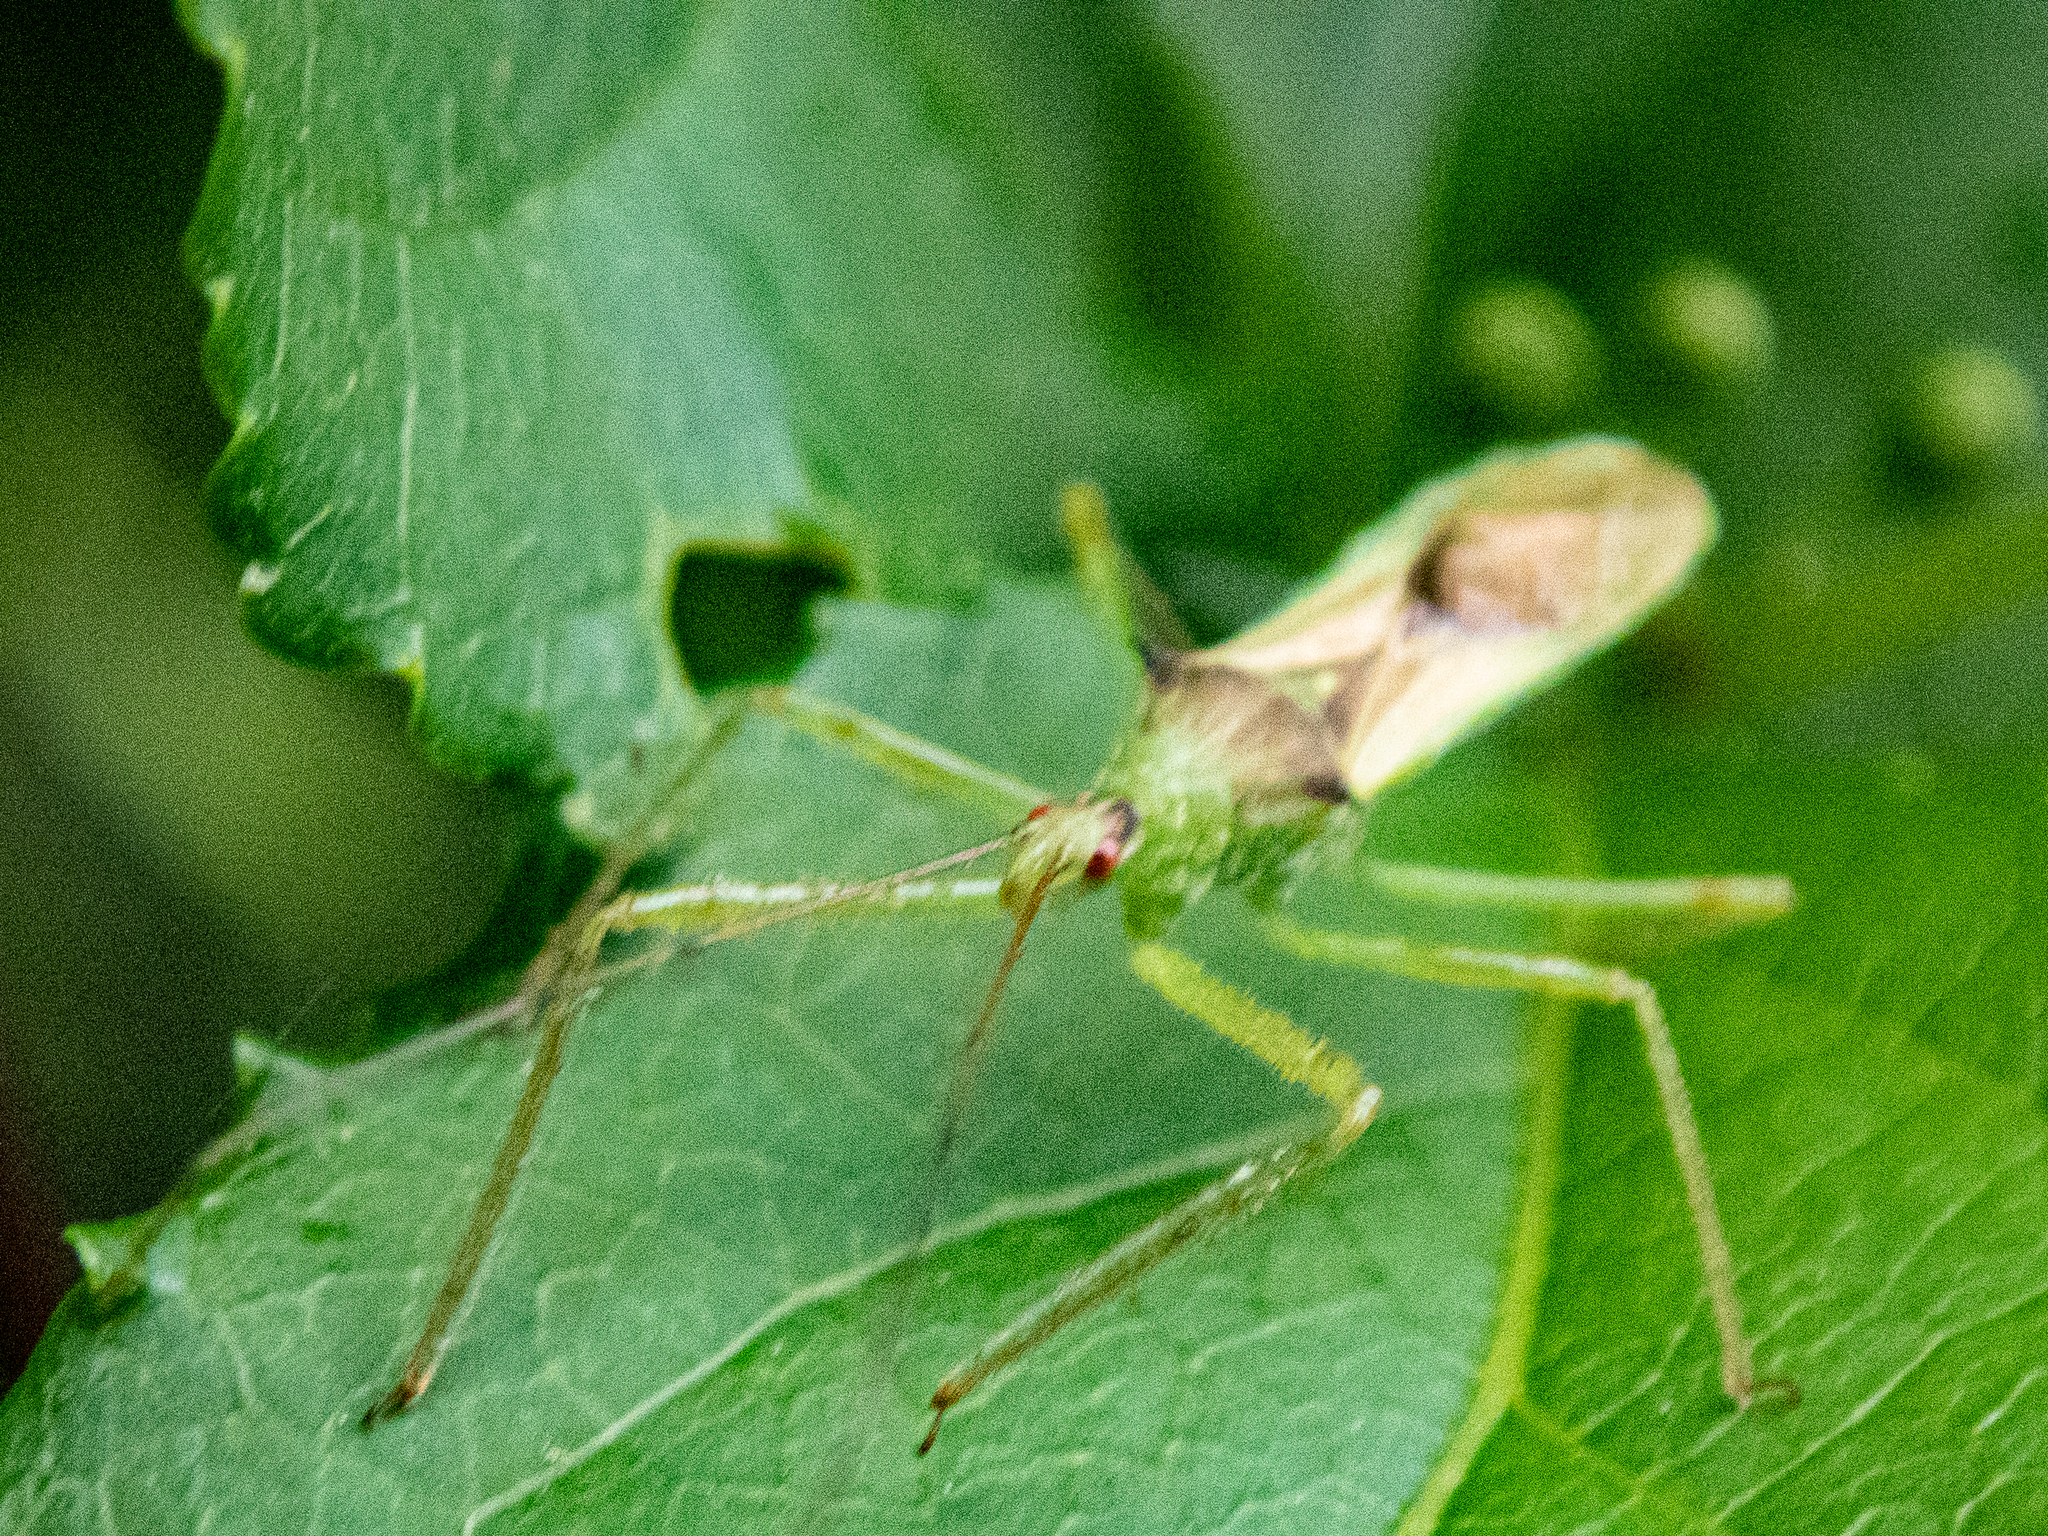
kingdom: Animalia
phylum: Arthropoda
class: Insecta
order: Hemiptera
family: Reduviidae
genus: Zelus
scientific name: Zelus luridus
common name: Pale green assassin bug
